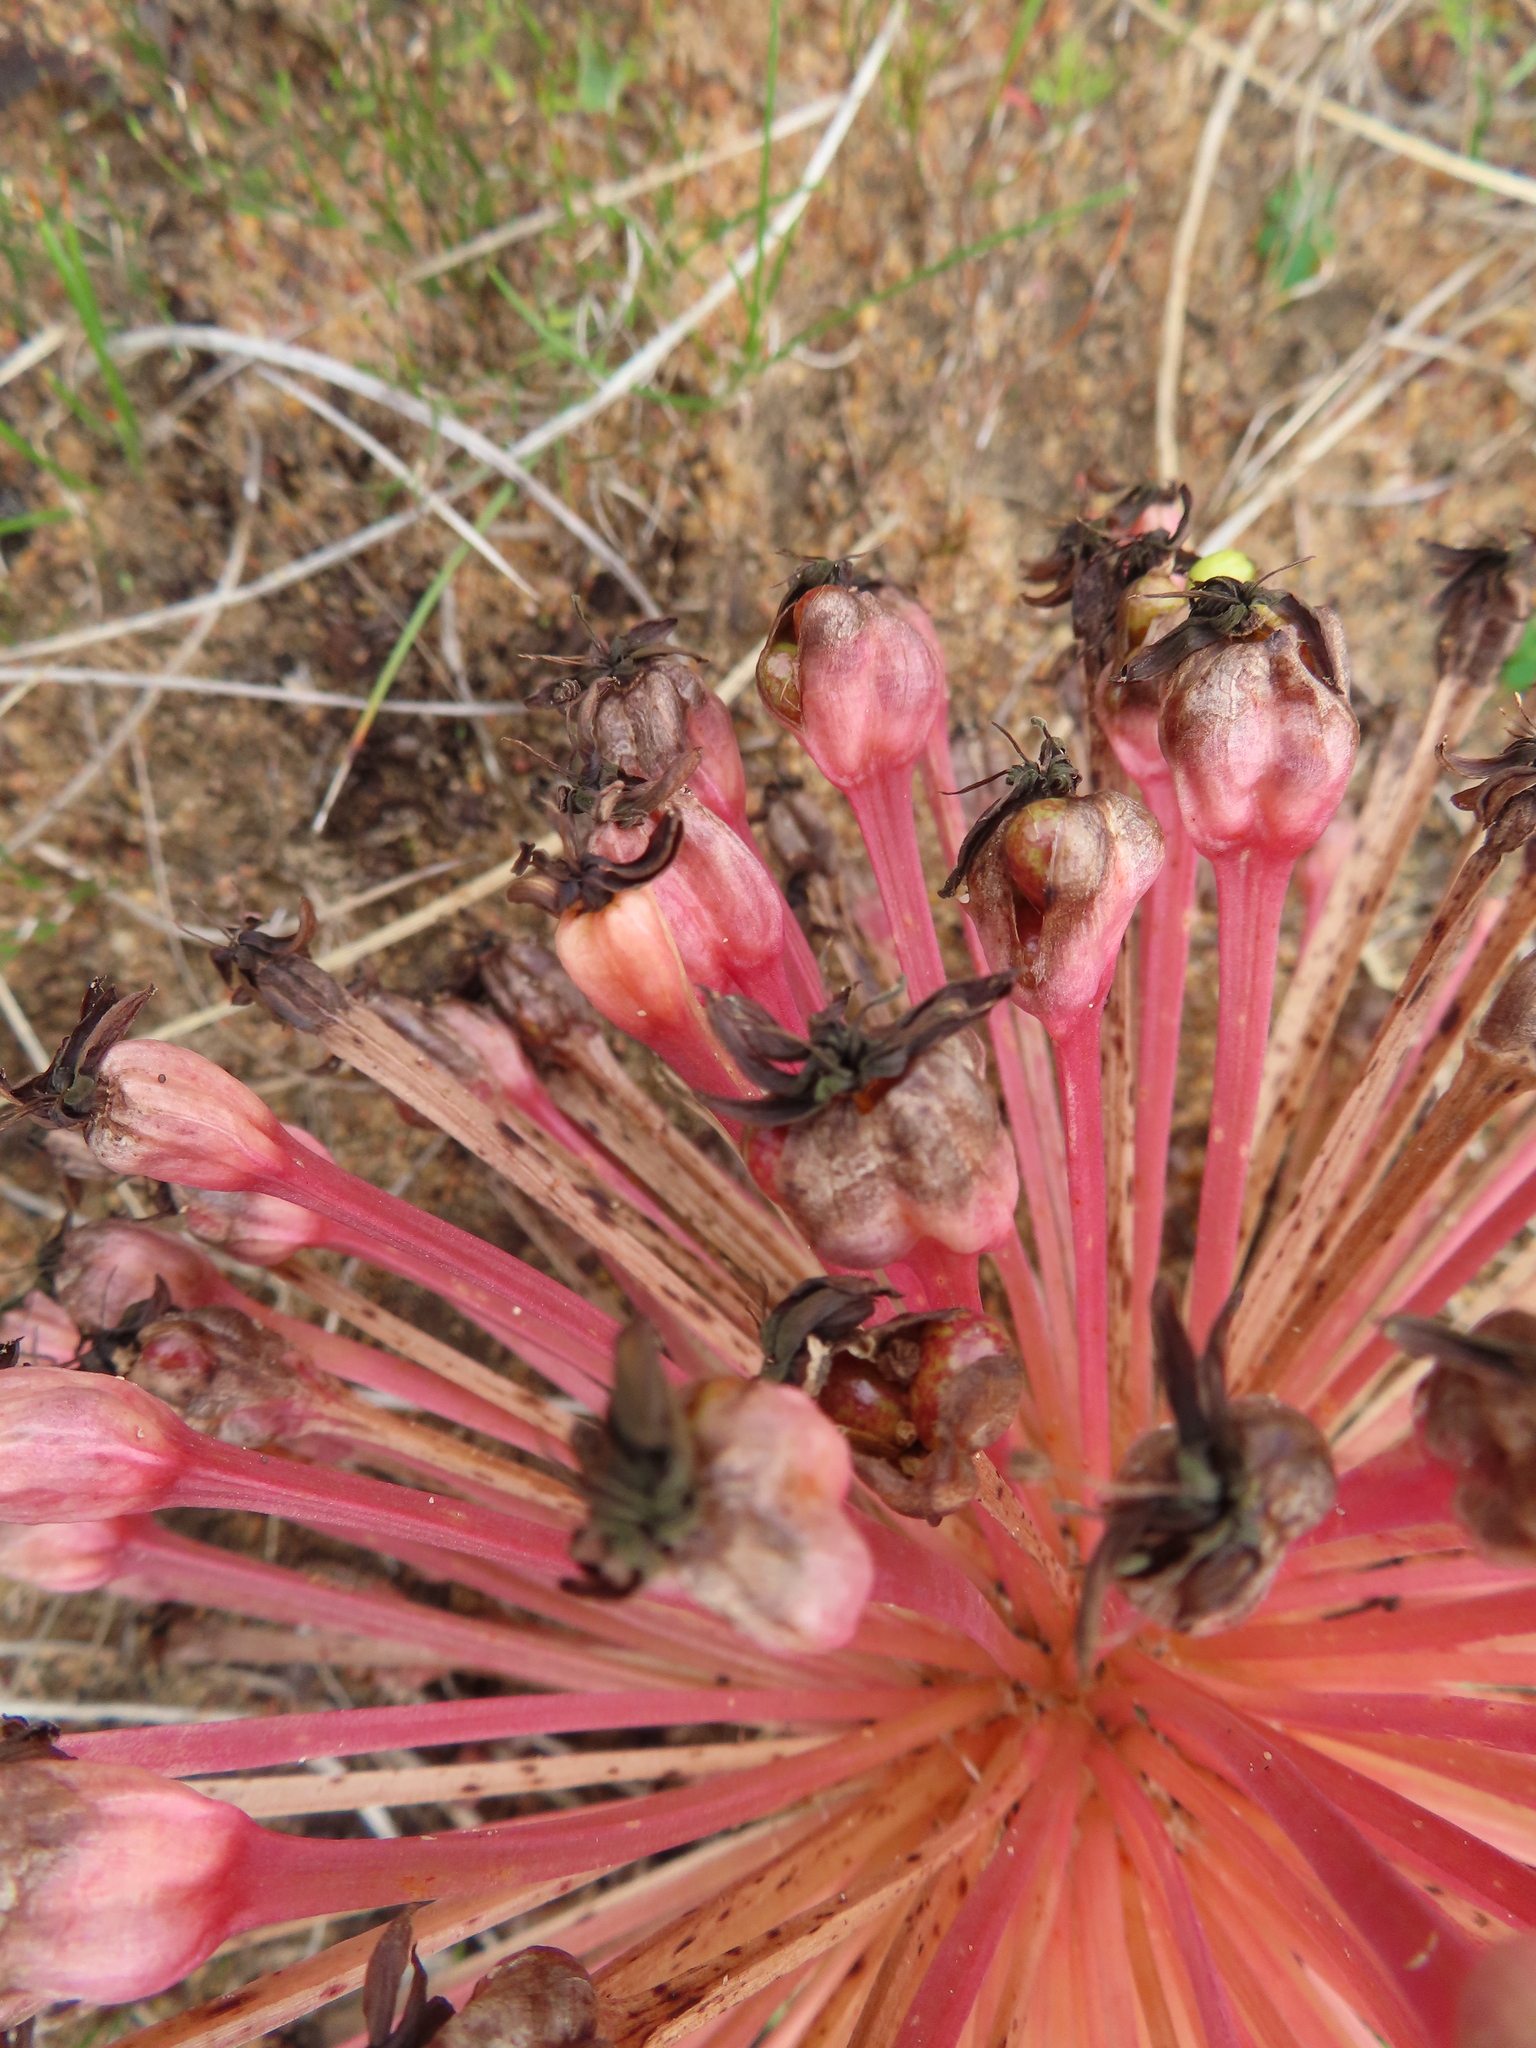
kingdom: Plantae
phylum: Tracheophyta
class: Liliopsida
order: Asparagales
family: Amaryllidaceae
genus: Crossyne
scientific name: Crossyne guttata
